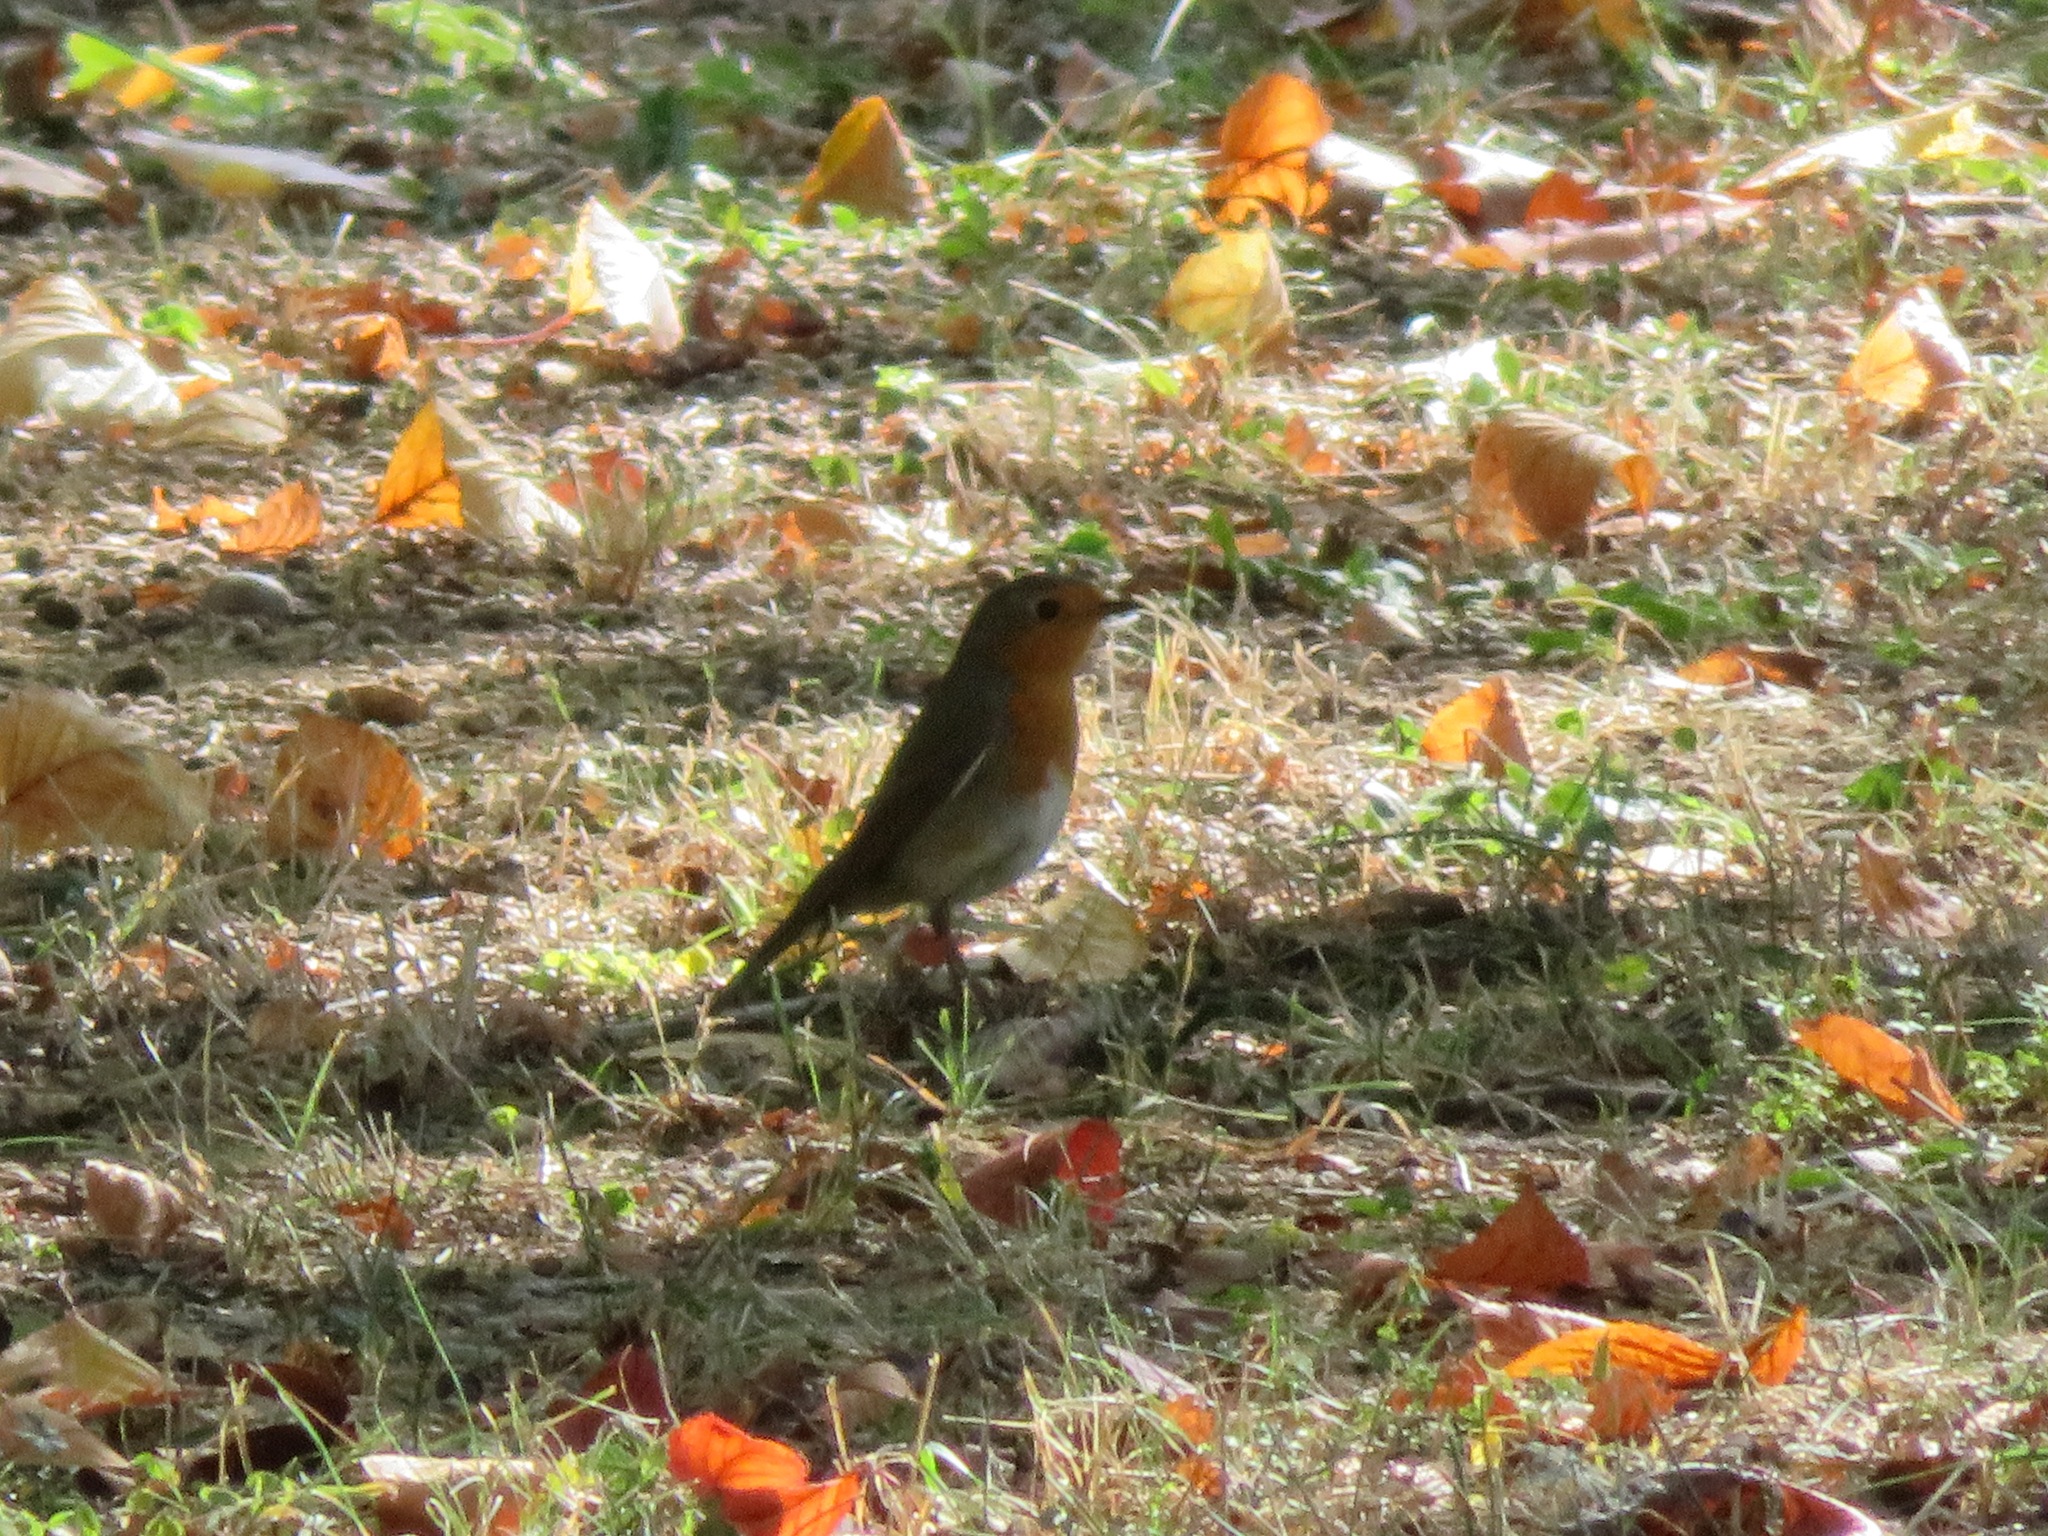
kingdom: Animalia
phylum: Chordata
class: Aves
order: Passeriformes
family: Muscicapidae
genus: Erithacus
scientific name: Erithacus rubecula
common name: European robin
